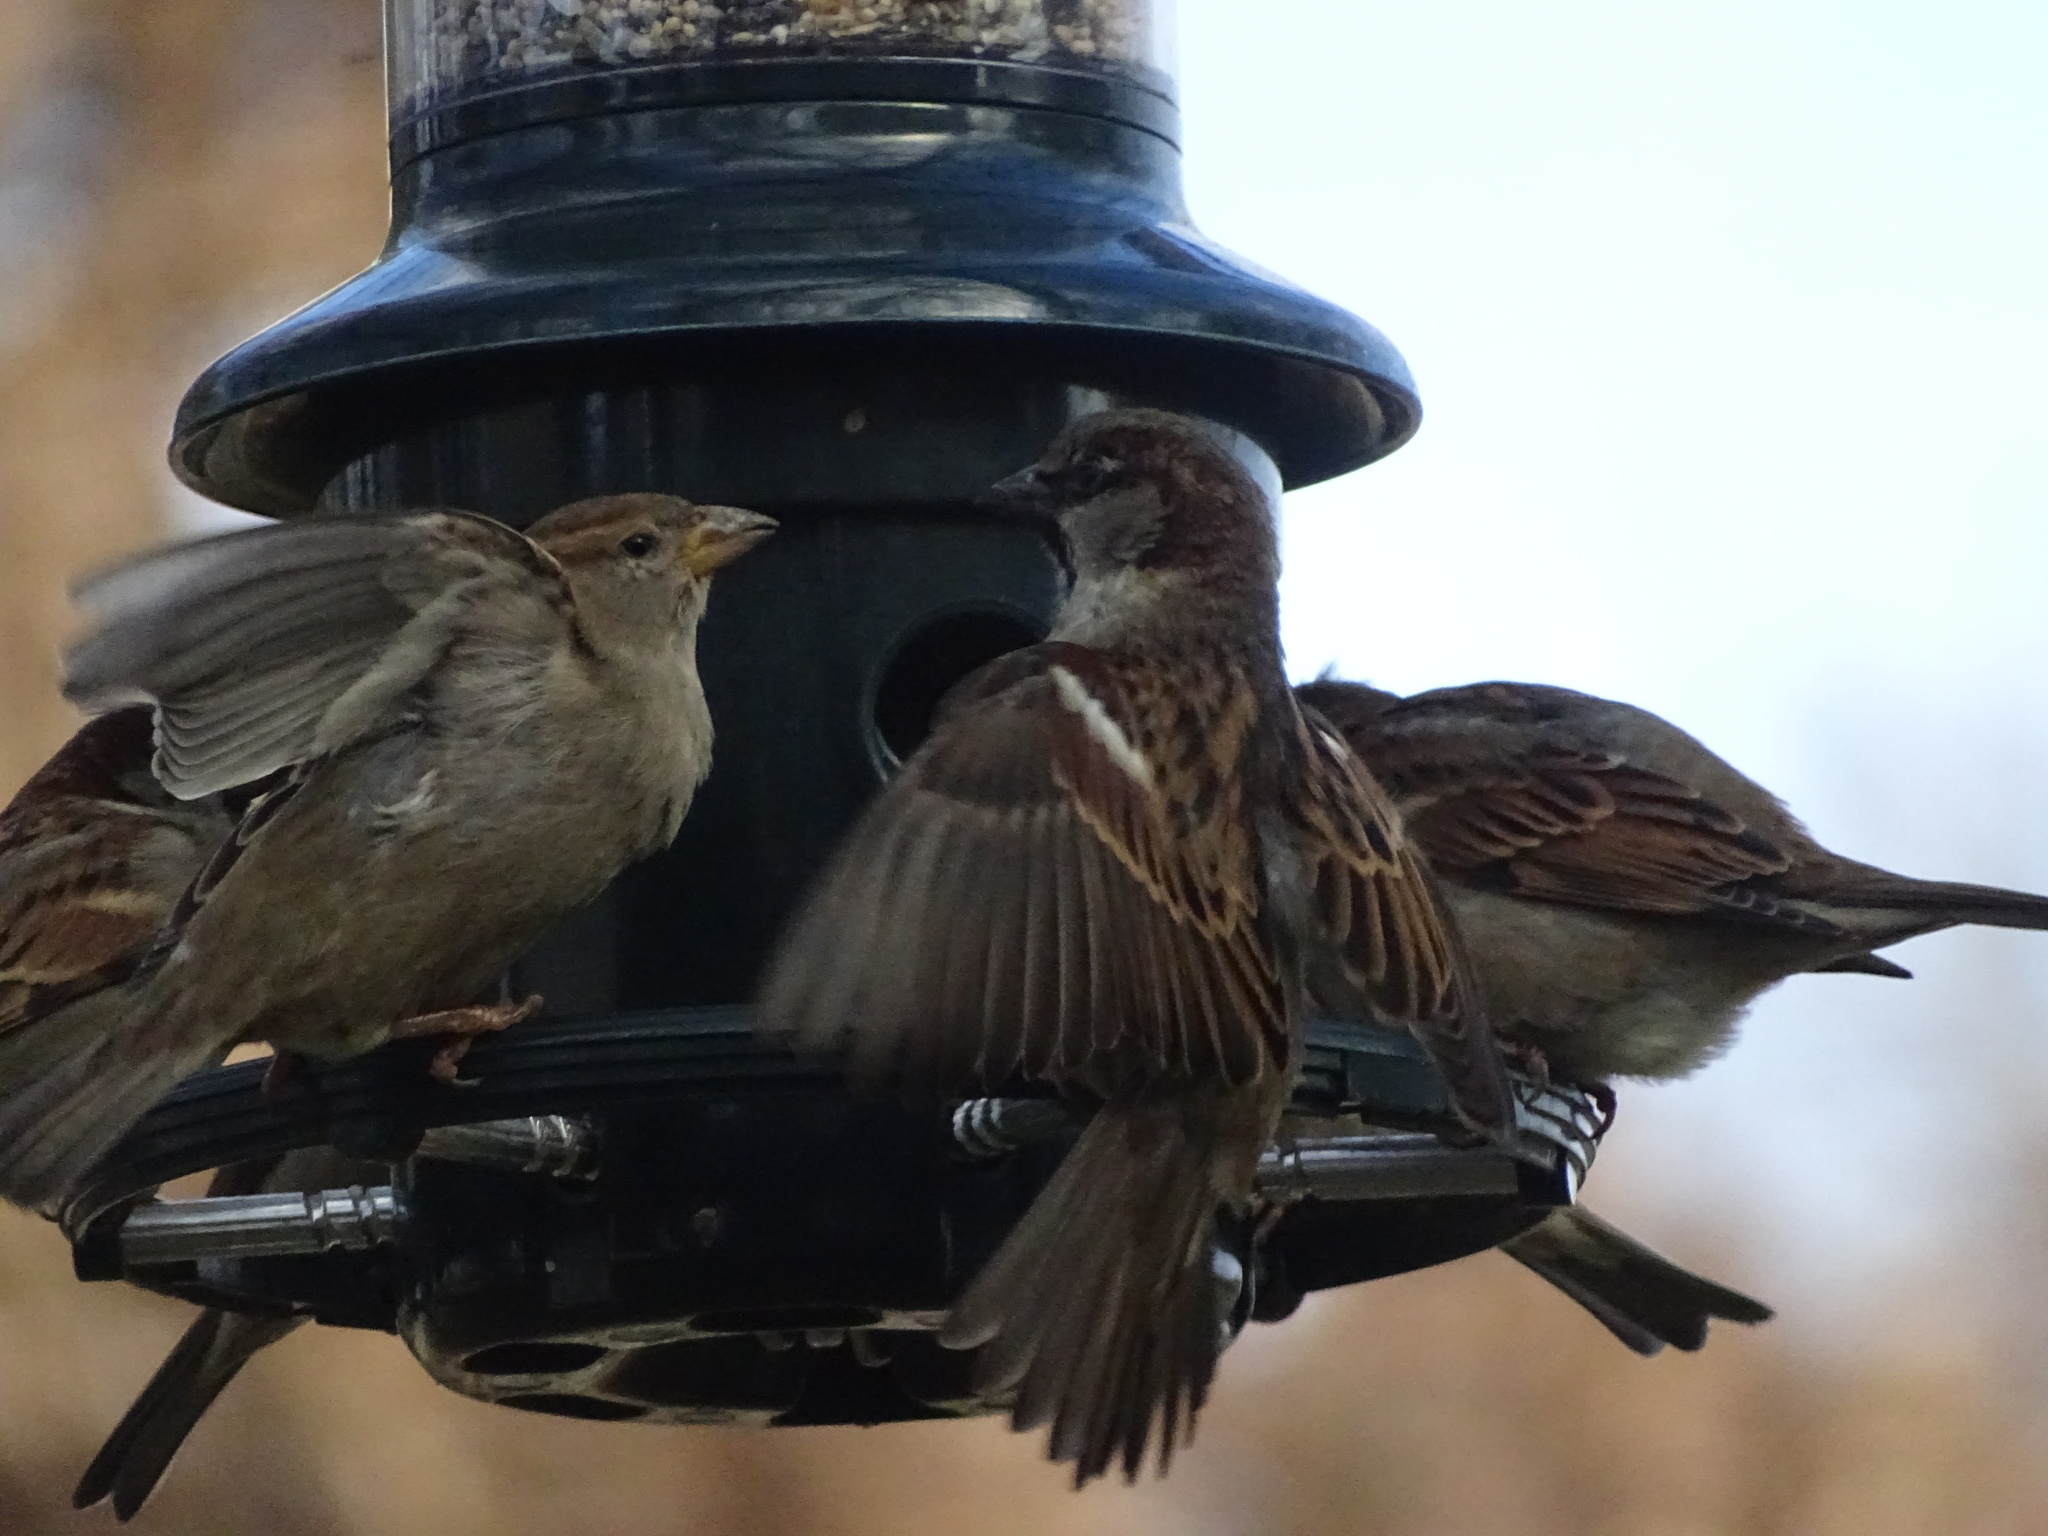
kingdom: Animalia
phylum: Chordata
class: Aves
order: Passeriformes
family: Passeridae
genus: Passer
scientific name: Passer domesticus
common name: House sparrow
